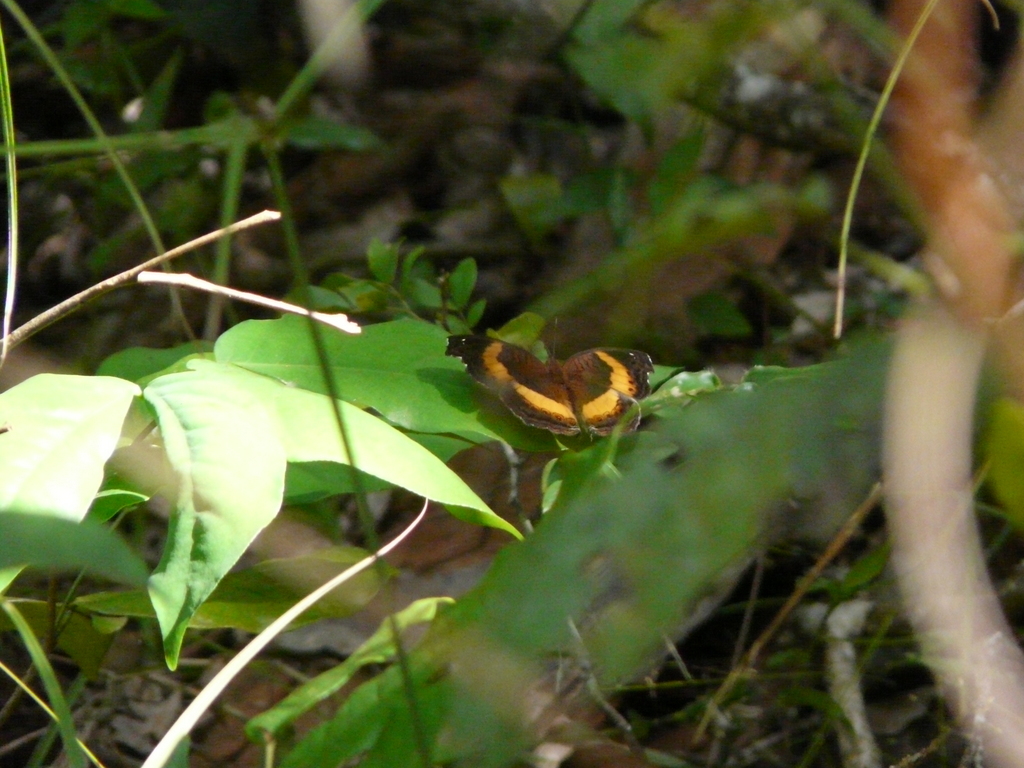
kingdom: Animalia
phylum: Arthropoda
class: Insecta
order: Lepidoptera
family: Nymphalidae
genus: Junonia
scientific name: Junonia terea
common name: Soldier pansy
